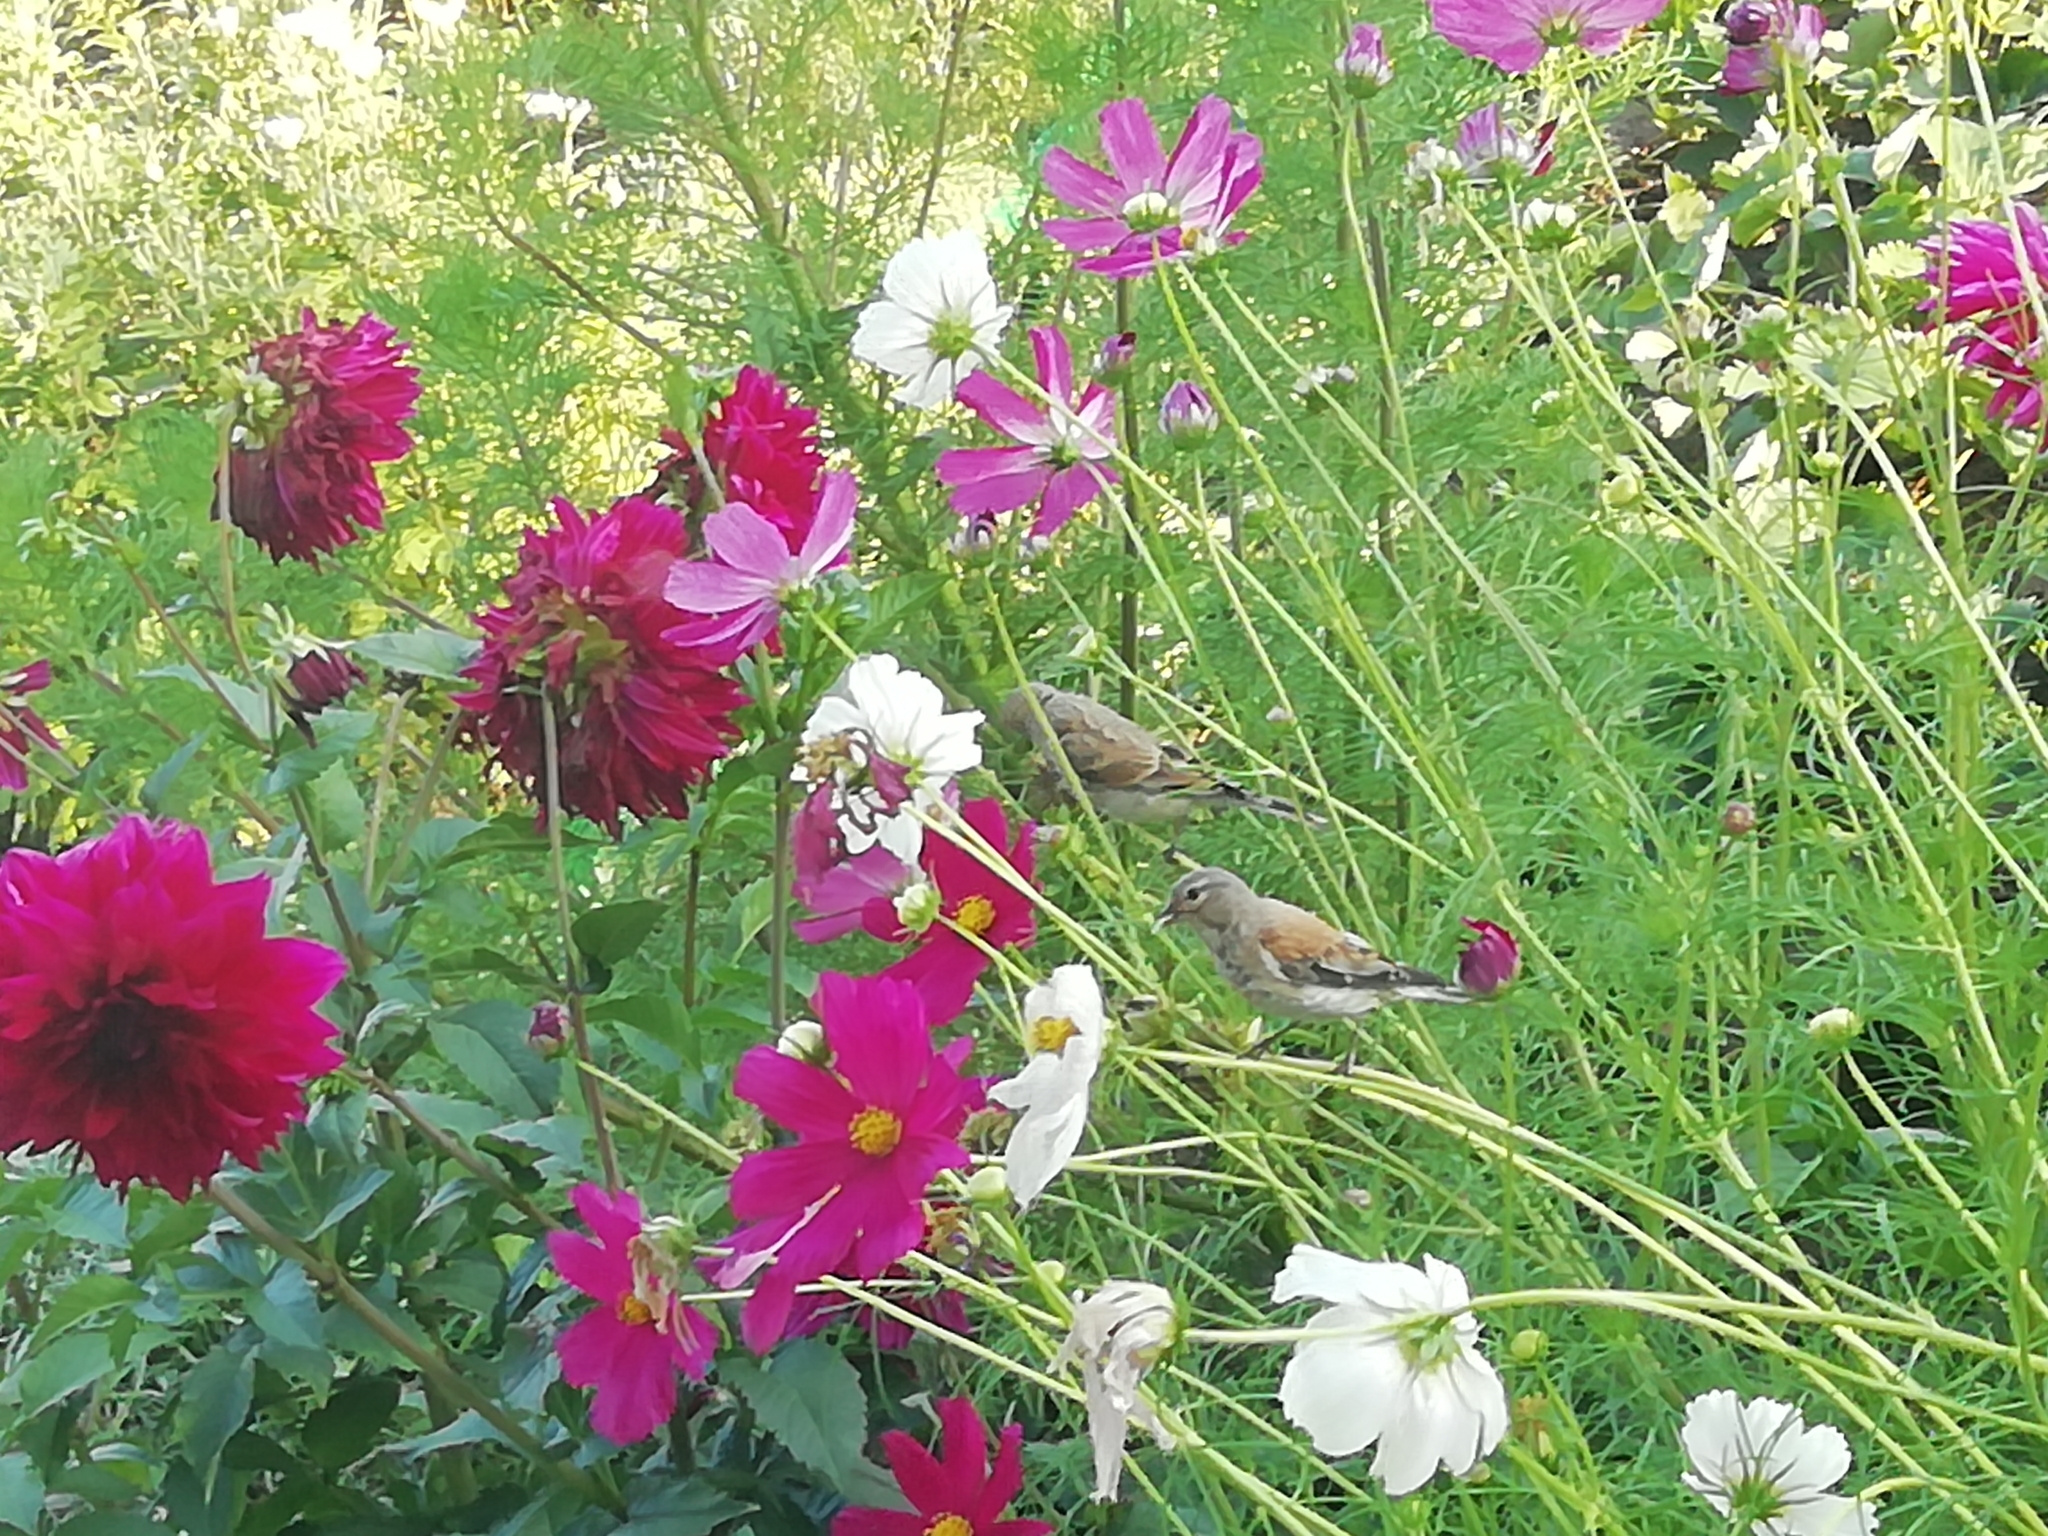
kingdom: Animalia
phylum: Chordata
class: Aves
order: Passeriformes
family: Fringillidae
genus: Linaria
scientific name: Linaria cannabina
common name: Common linnet
